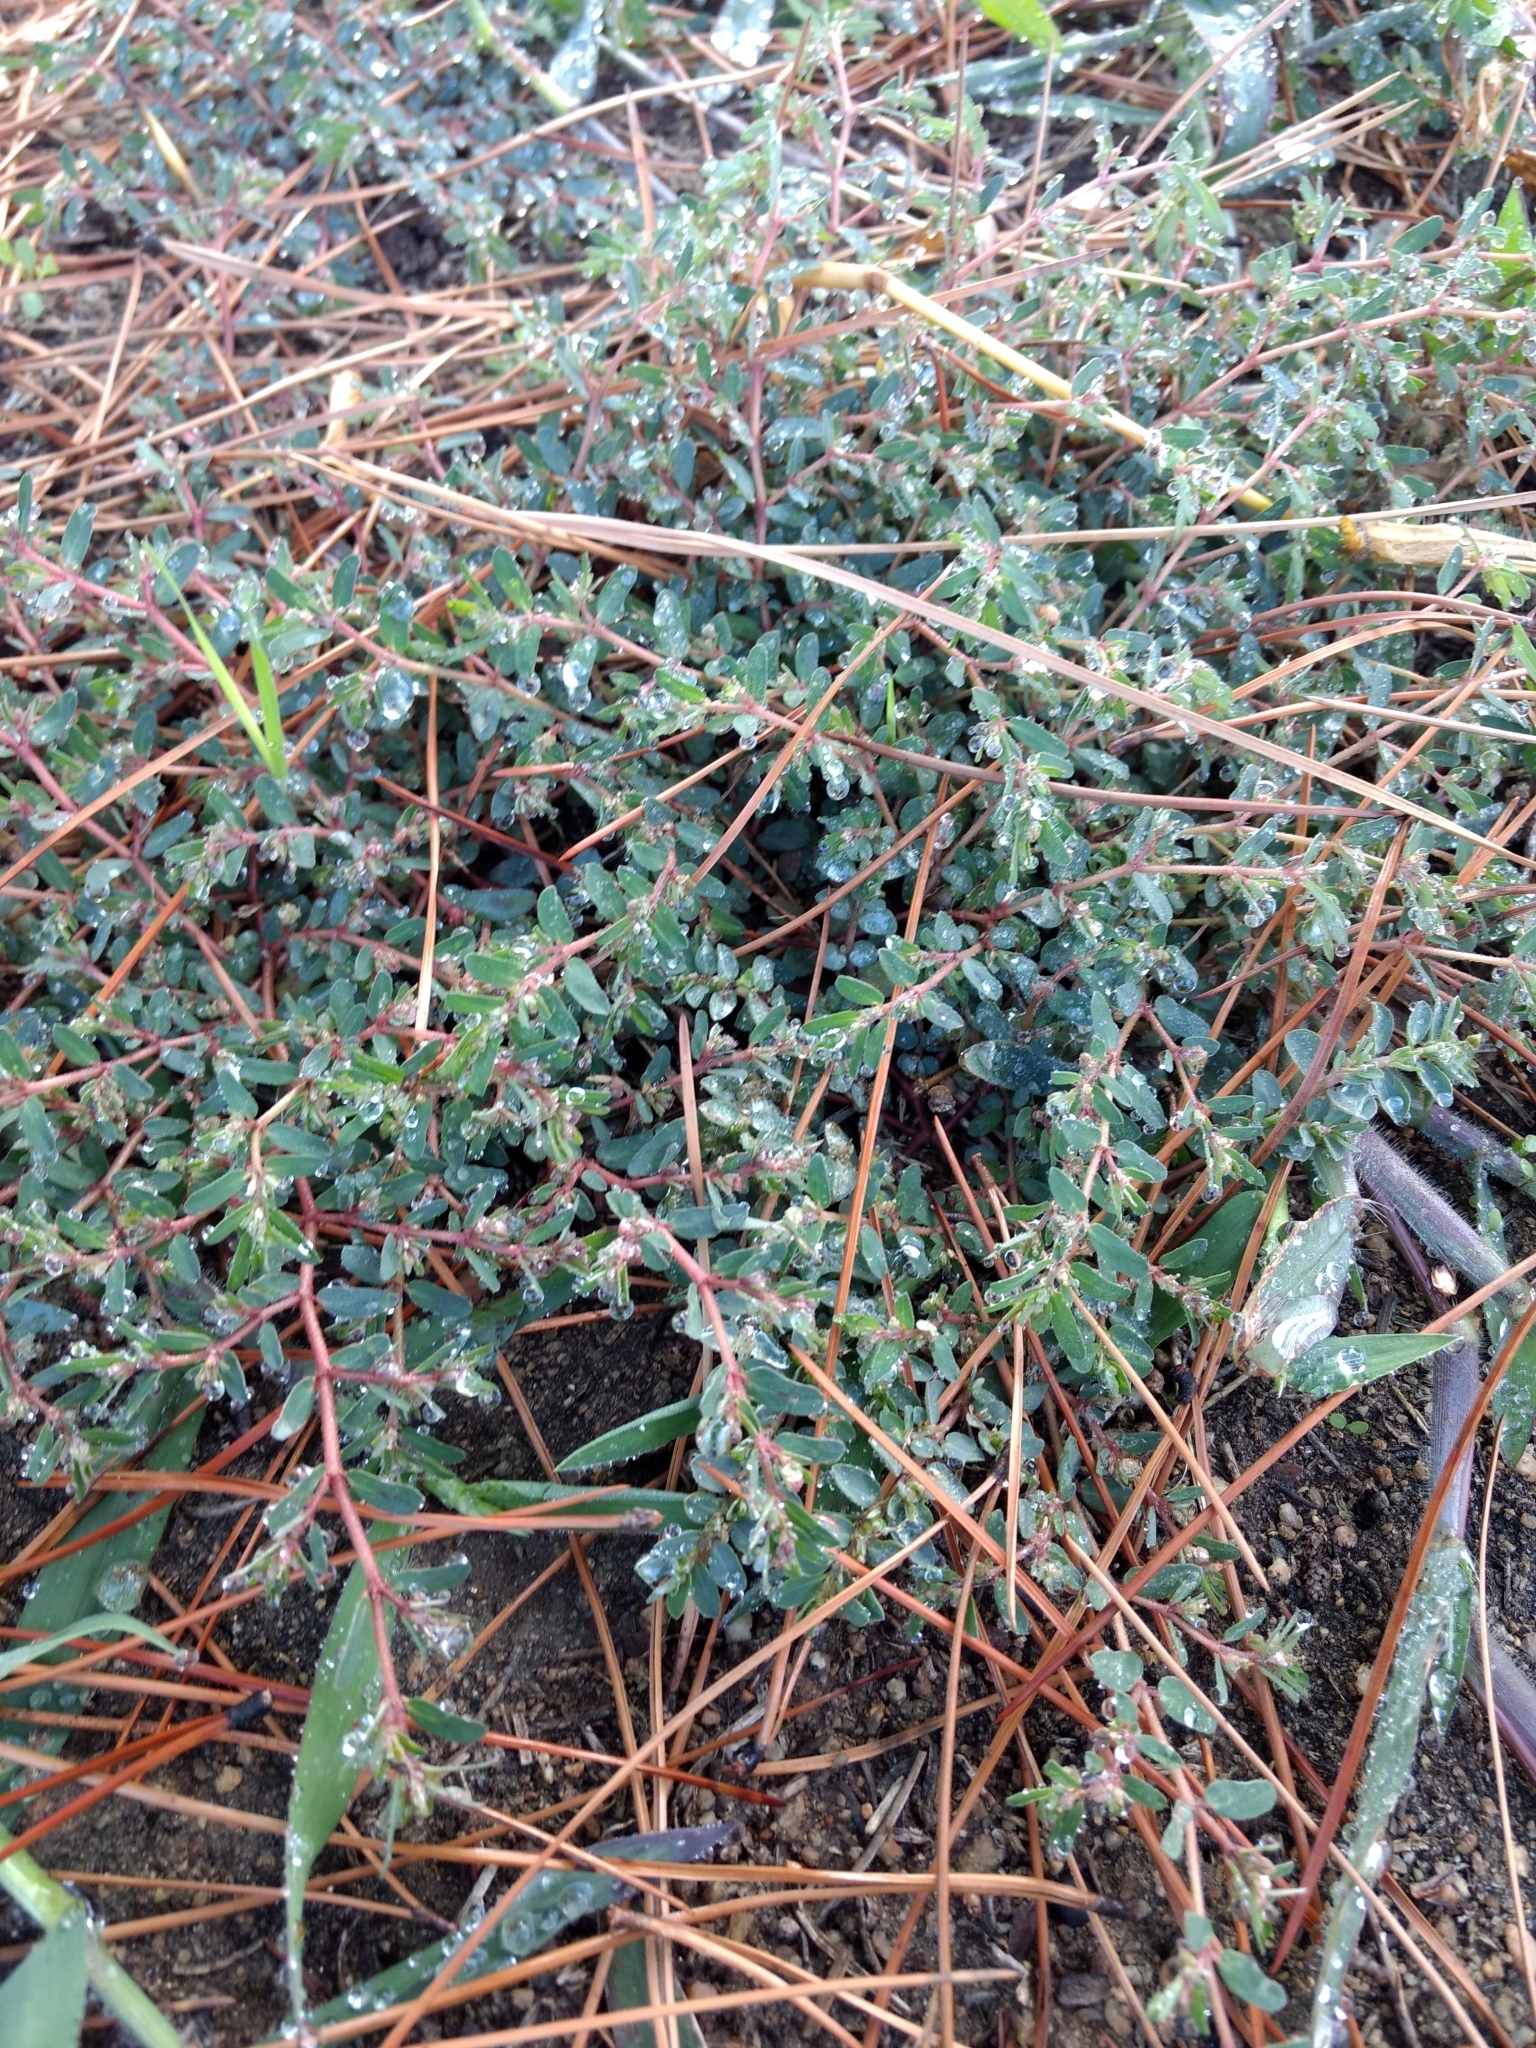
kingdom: Plantae
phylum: Tracheophyta
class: Magnoliopsida
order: Malpighiales
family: Euphorbiaceae
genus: Euphorbia
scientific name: Euphorbia maculata
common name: Spotted spurge
